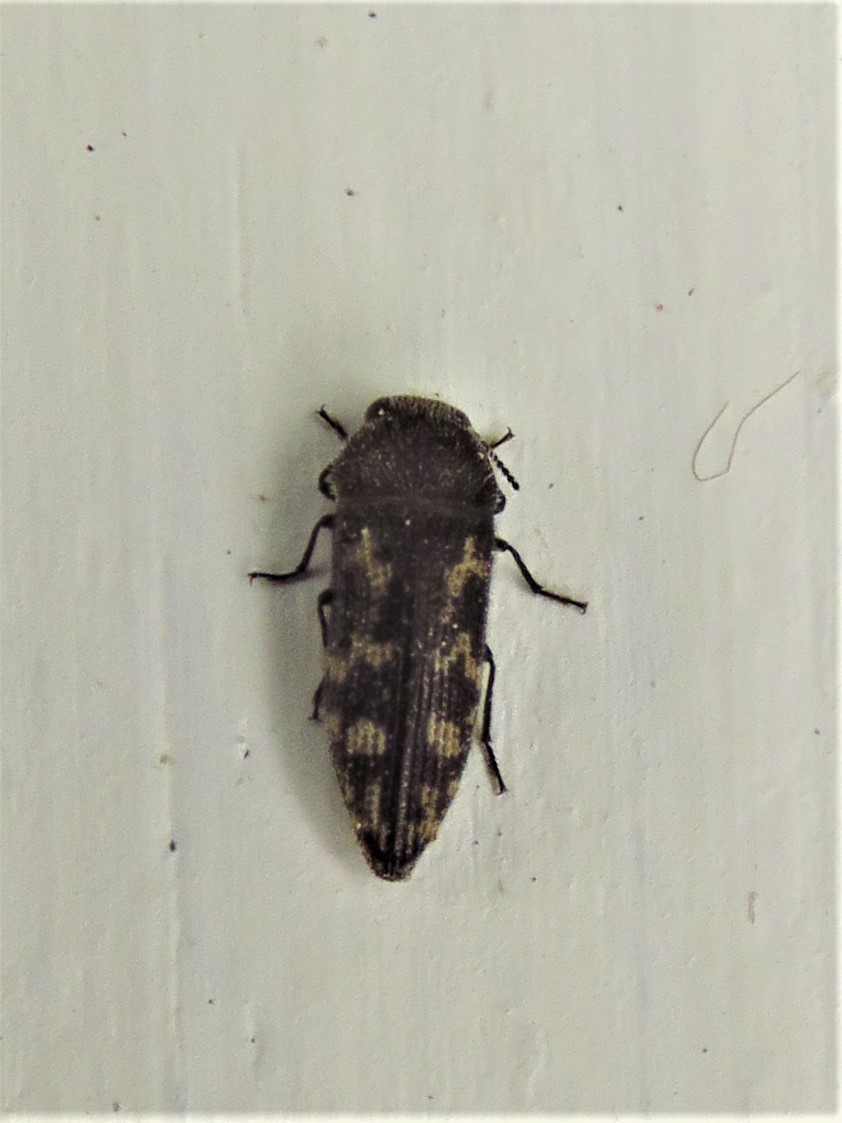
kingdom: Animalia
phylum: Arthropoda
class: Insecta
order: Coleoptera
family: Buprestidae
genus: Acmaeodera
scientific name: Acmaeodera neglecta
